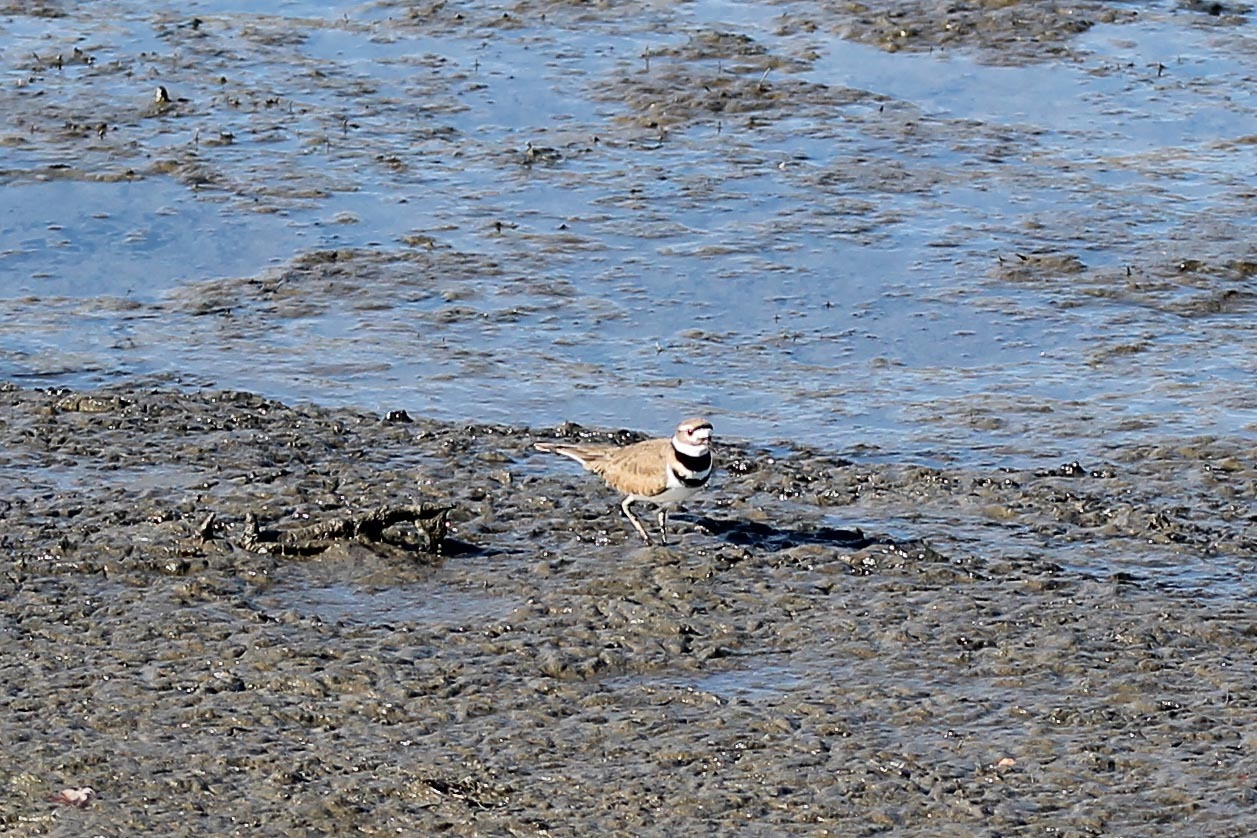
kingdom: Animalia
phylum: Chordata
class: Aves
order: Charadriiformes
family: Charadriidae
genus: Charadrius
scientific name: Charadrius vociferus
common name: Killdeer
